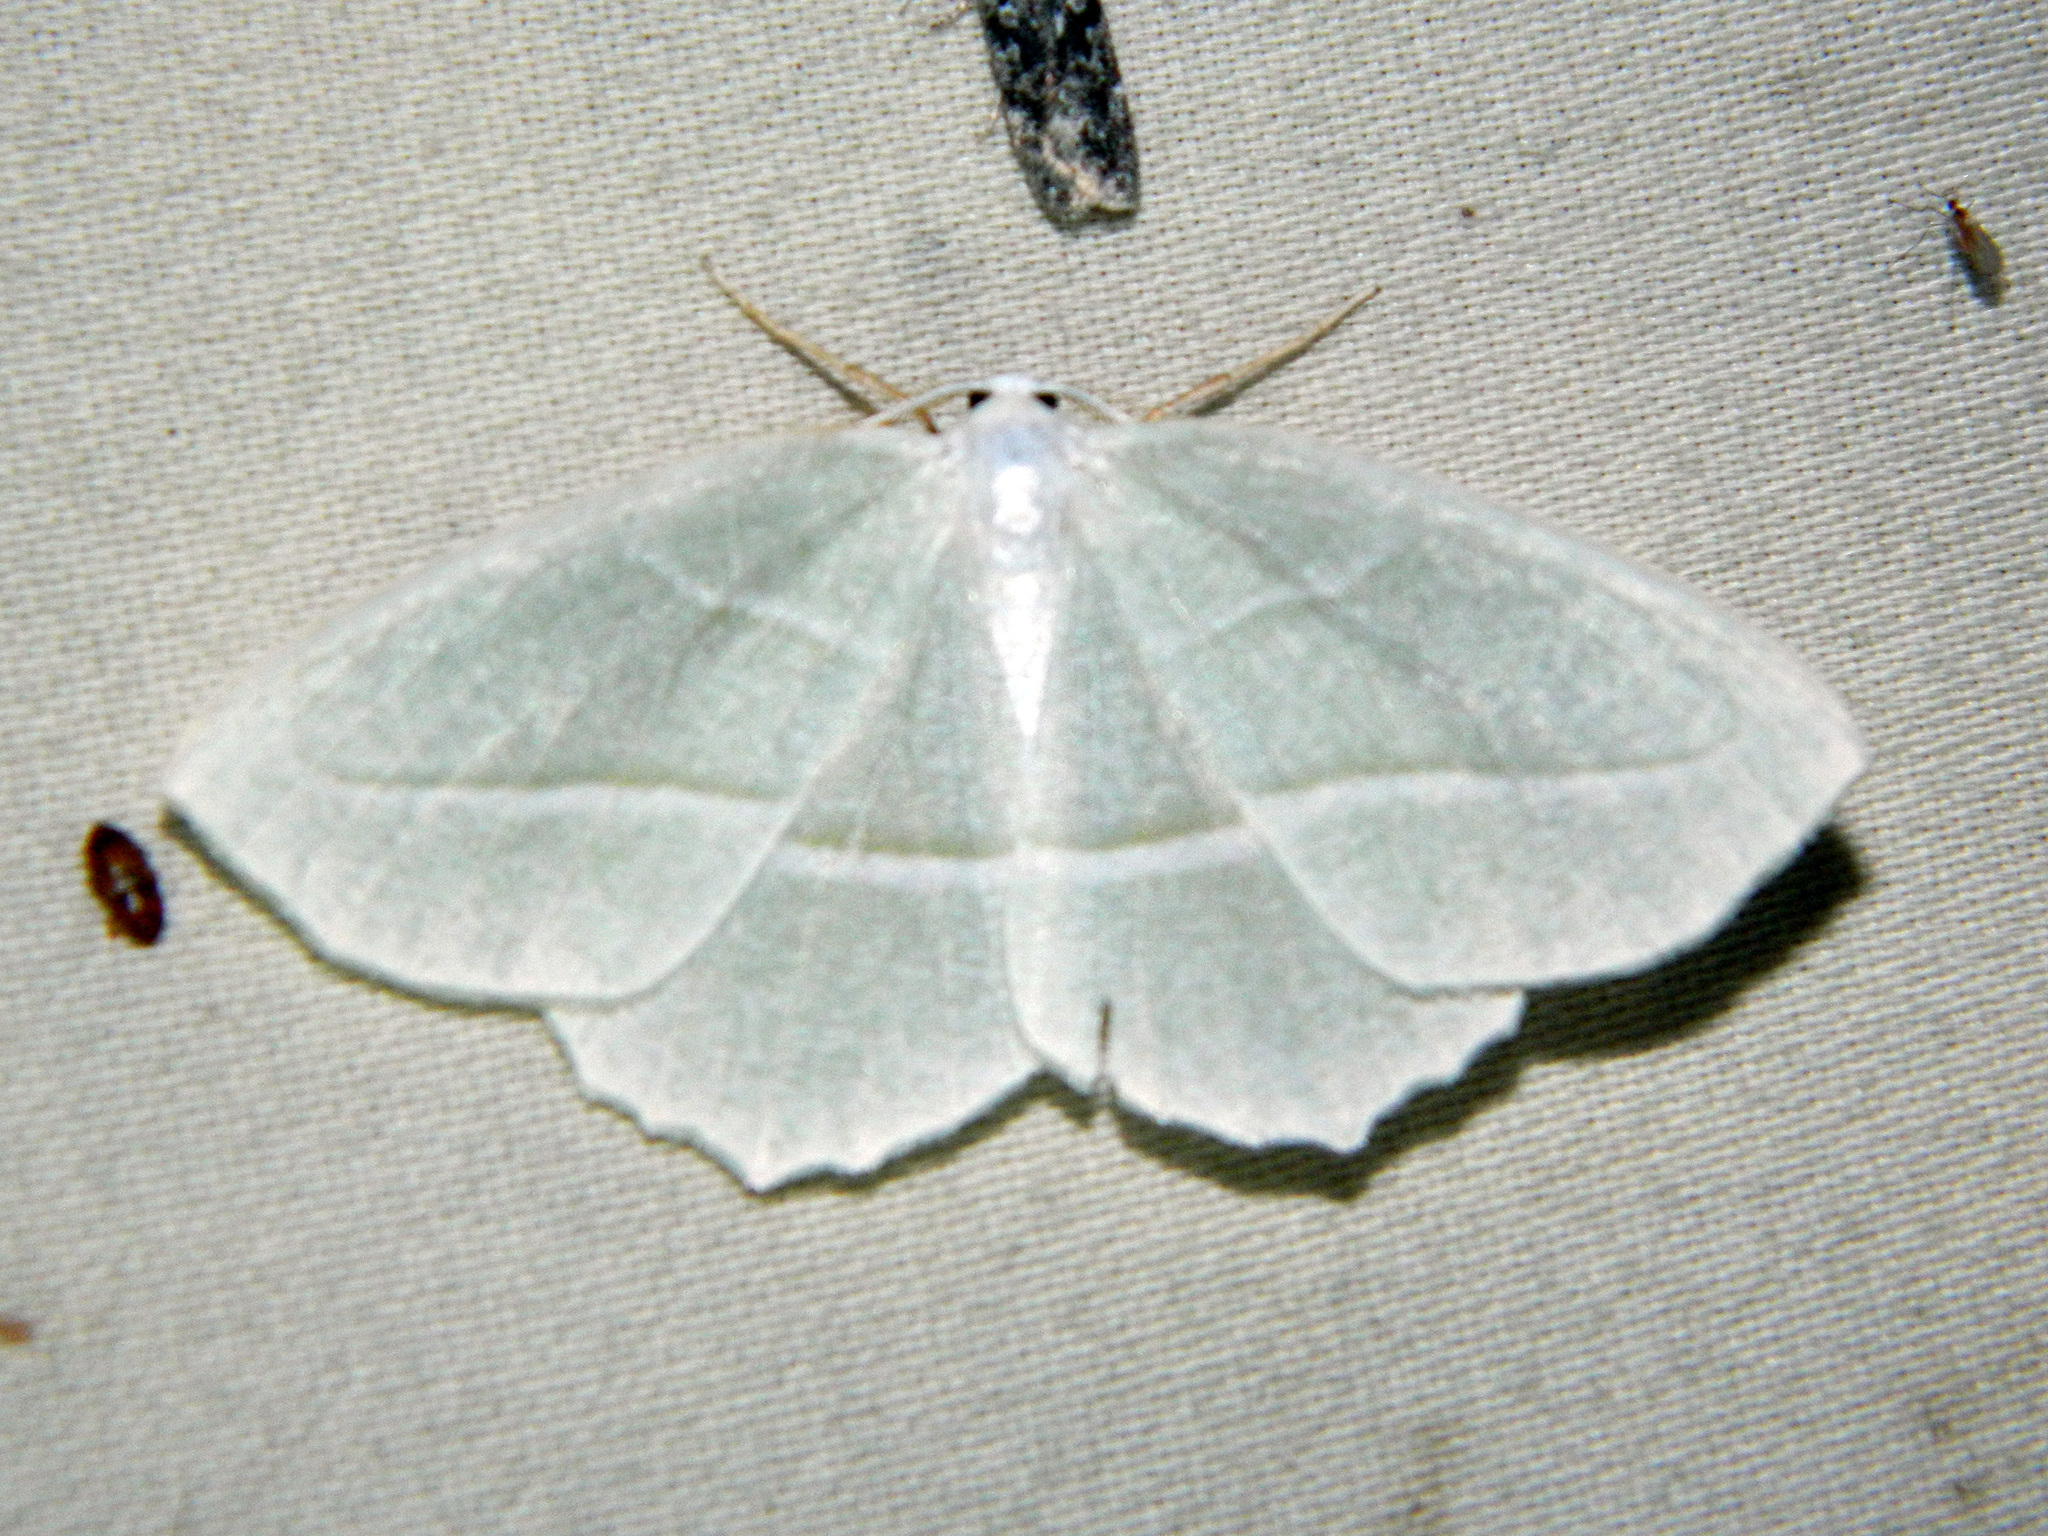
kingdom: Animalia
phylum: Arthropoda
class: Insecta
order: Lepidoptera
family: Geometridae
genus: Campaea
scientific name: Campaea perlata
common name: Fringed looper
